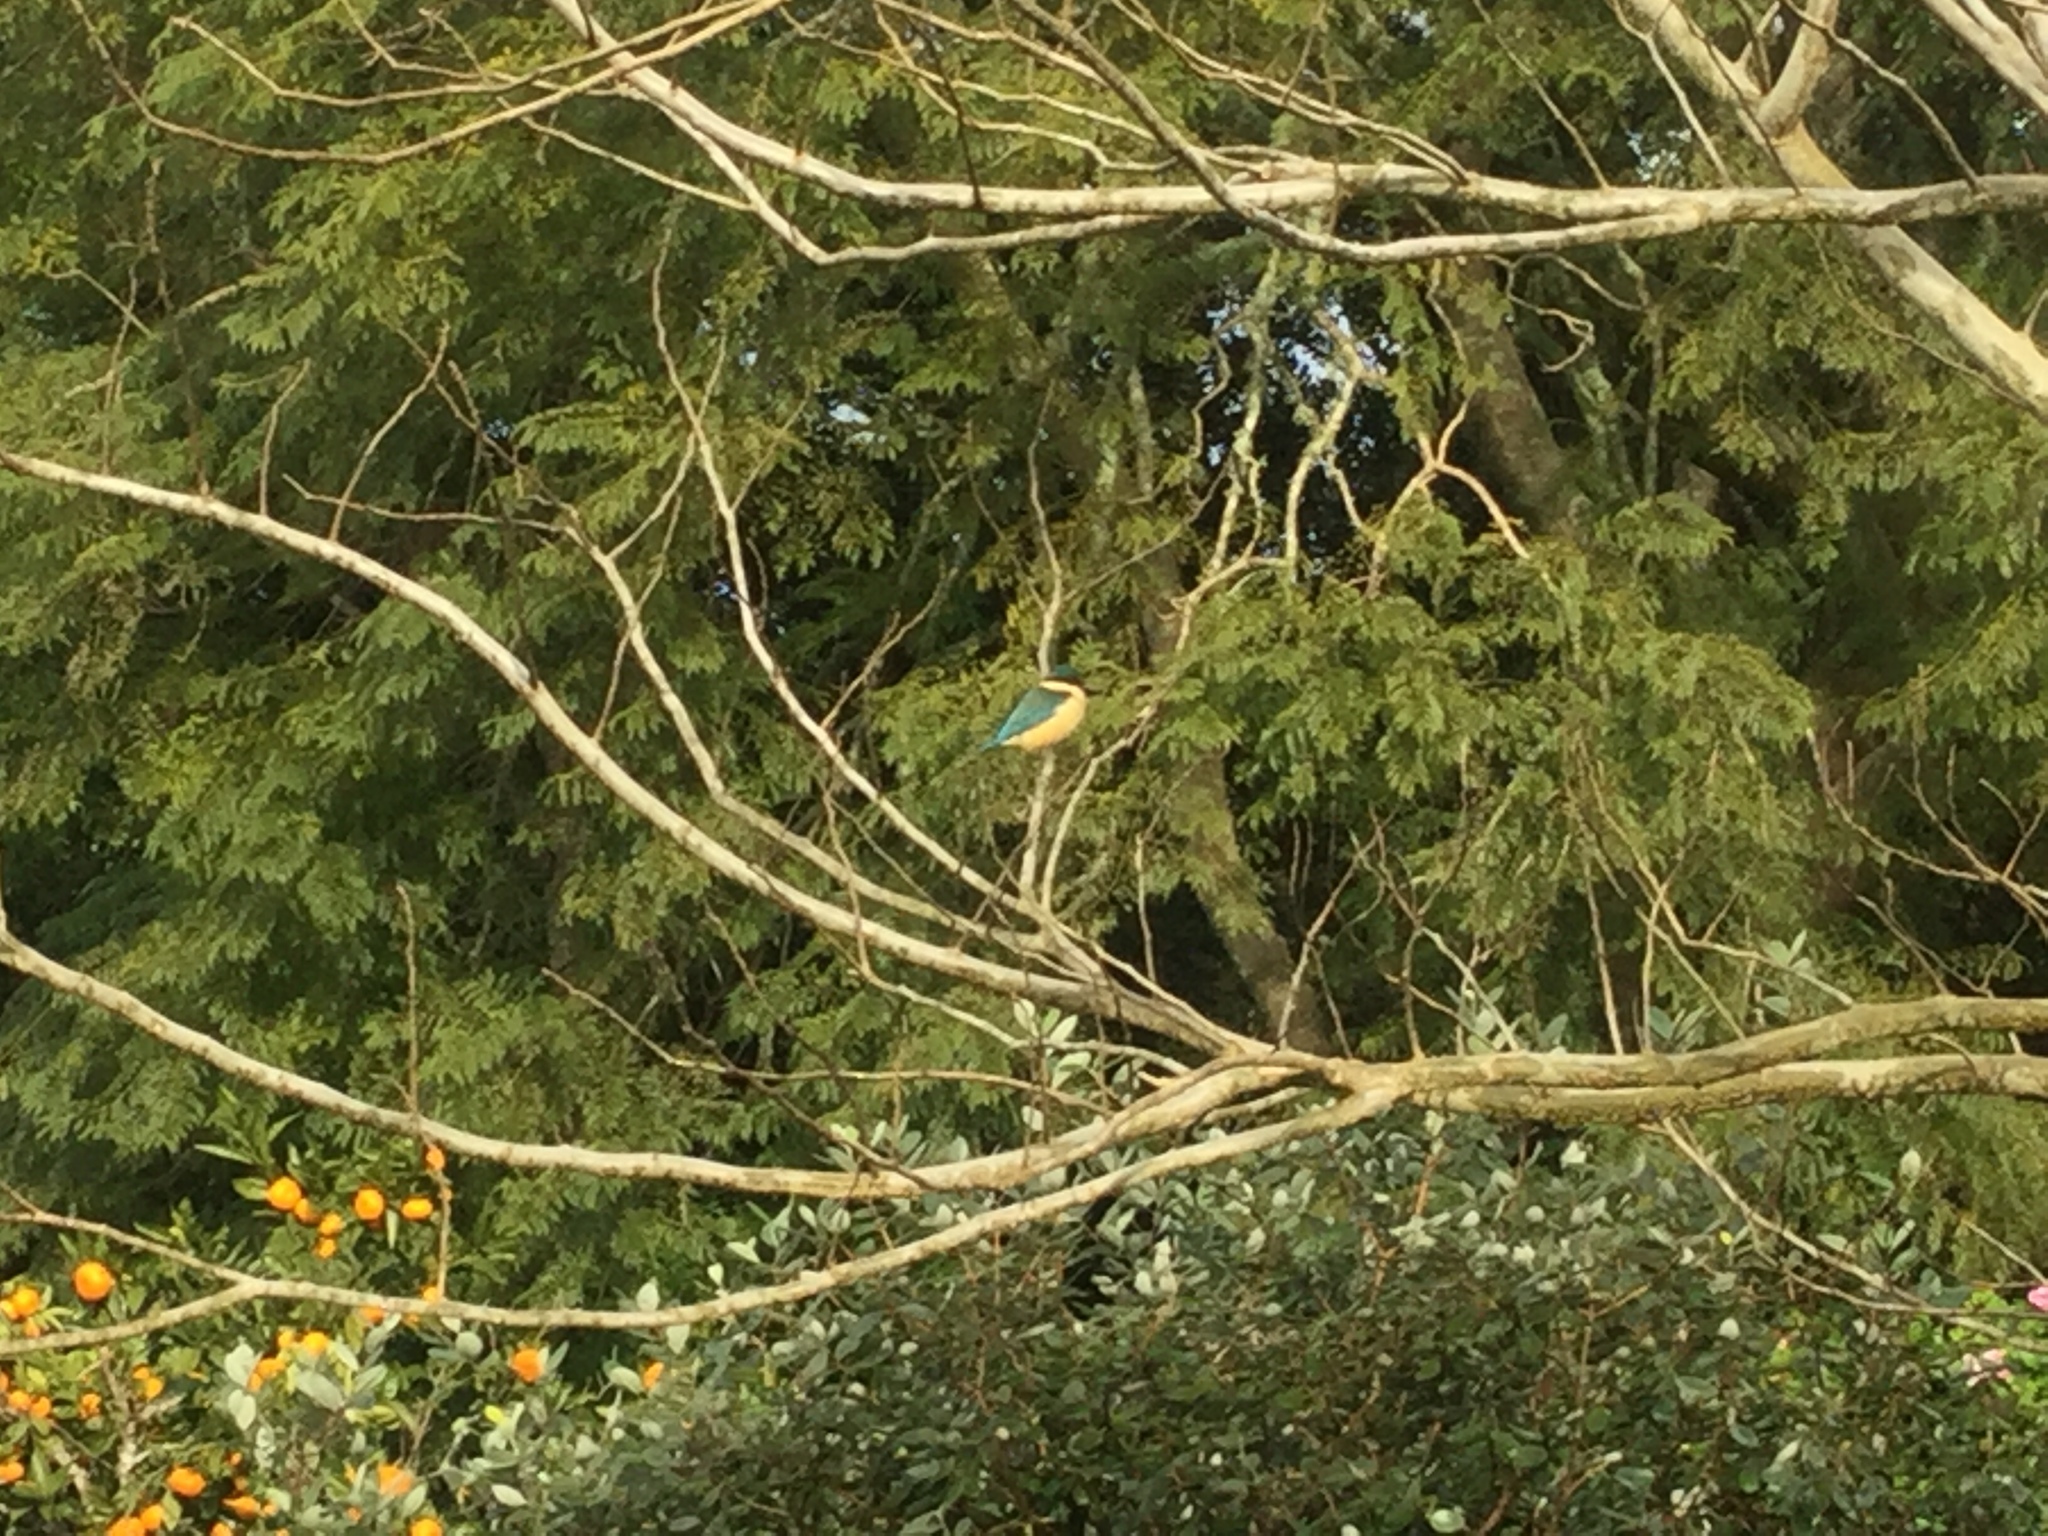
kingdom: Animalia
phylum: Chordata
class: Aves
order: Coraciiformes
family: Alcedinidae
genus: Todiramphus
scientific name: Todiramphus sanctus
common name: Sacred kingfisher
